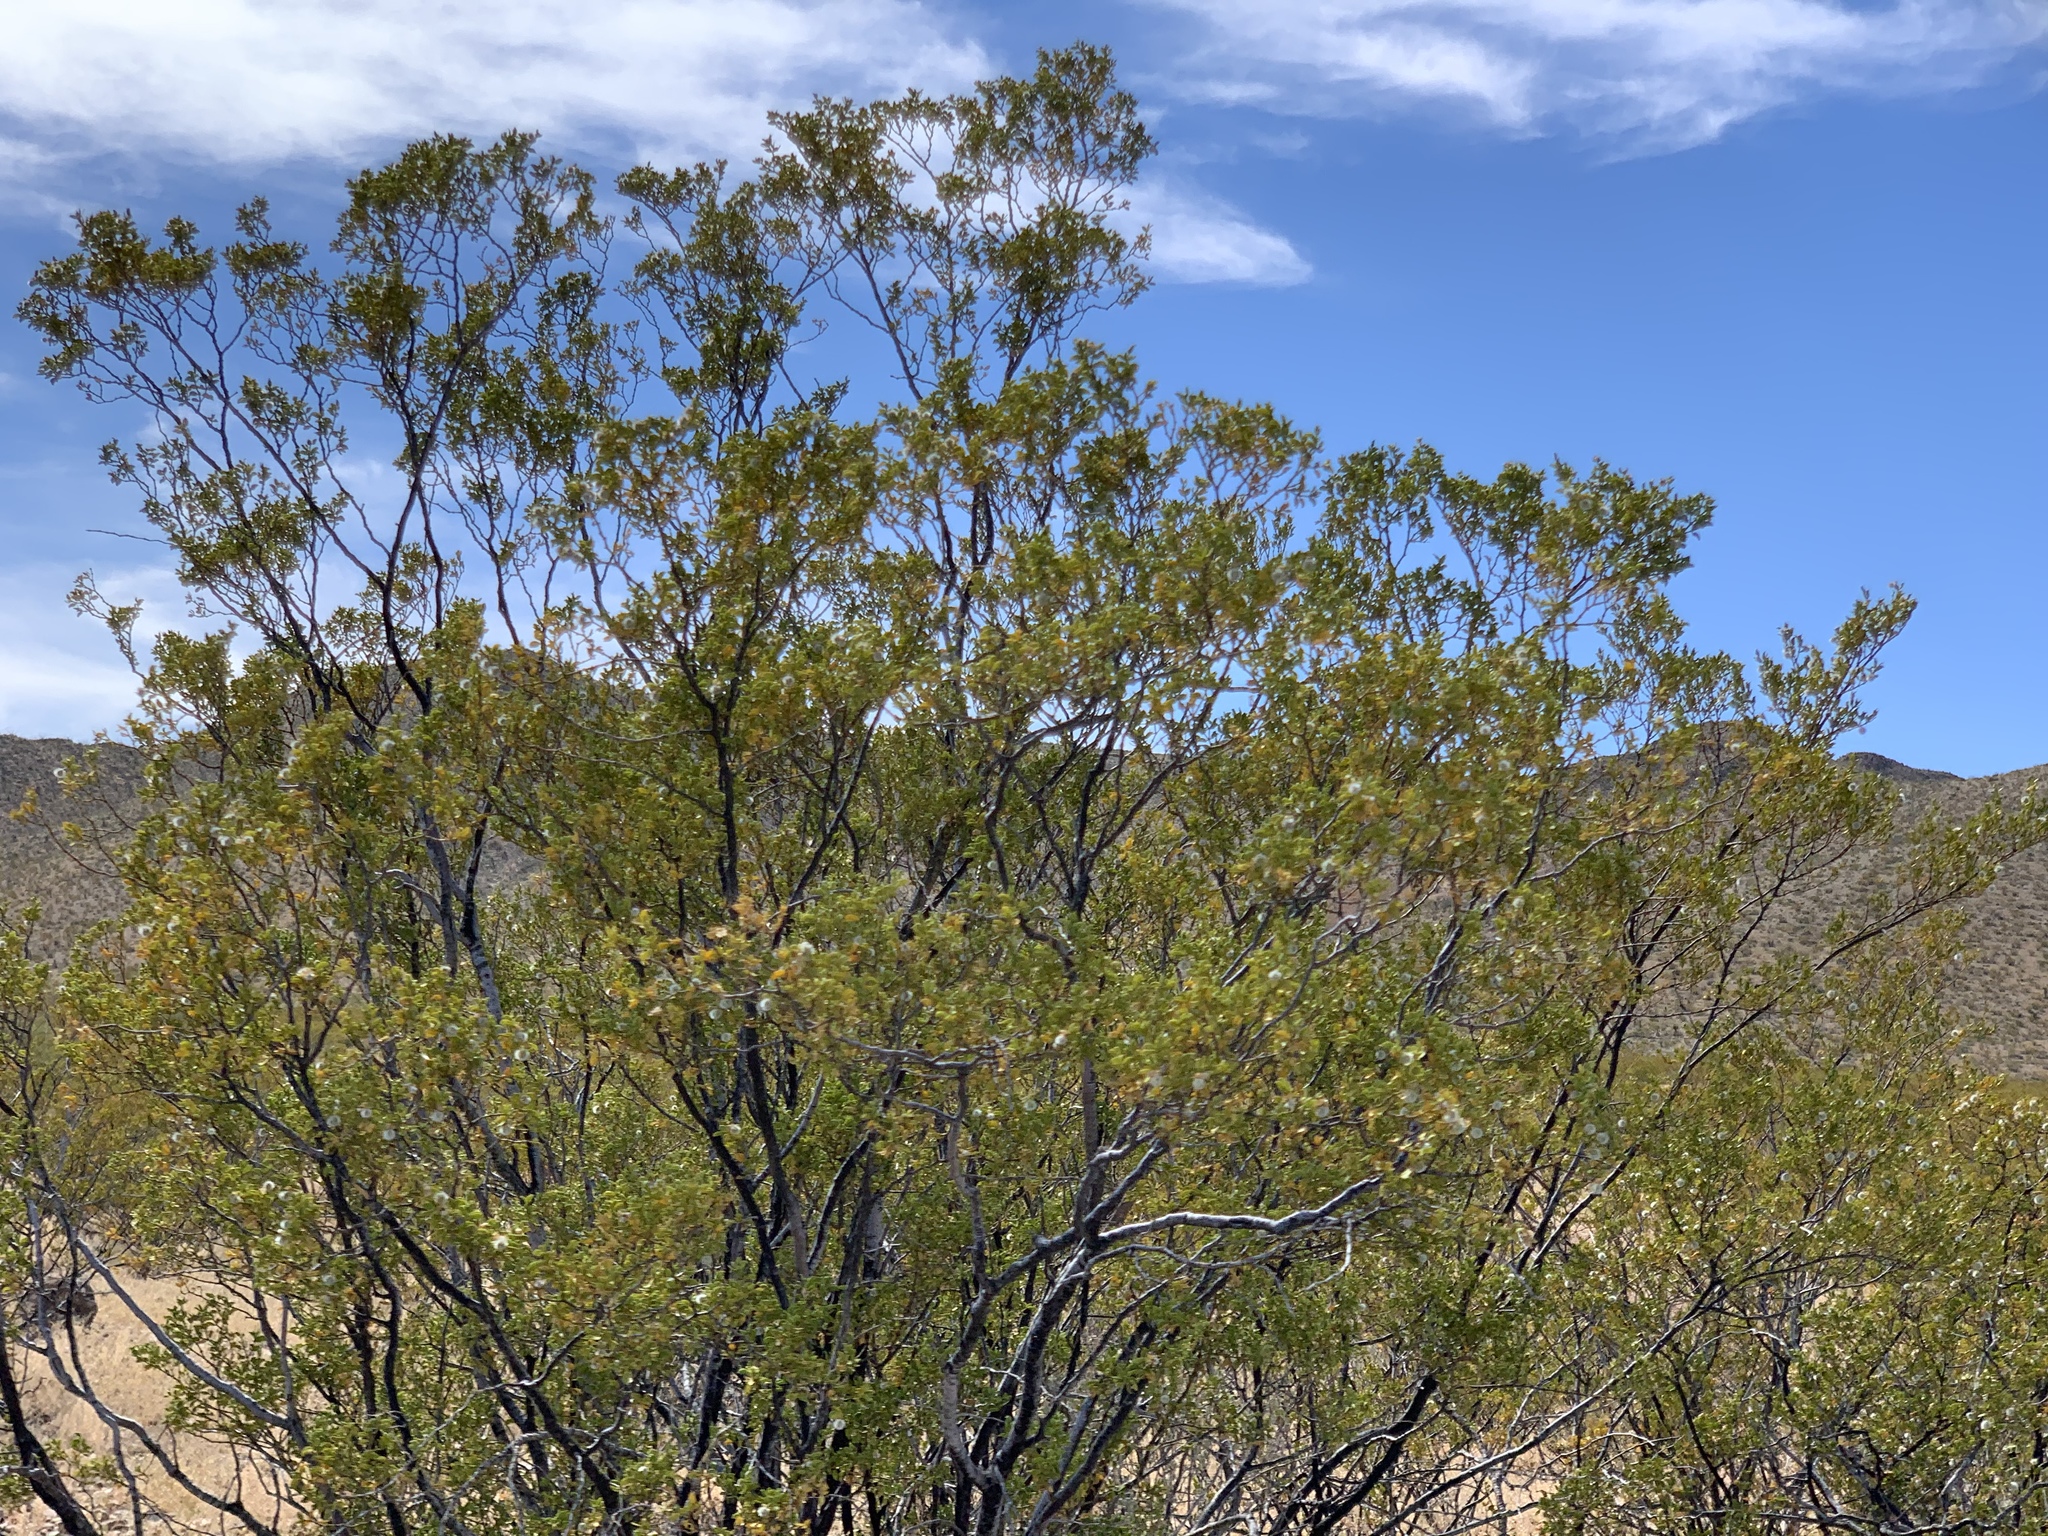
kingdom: Plantae
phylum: Tracheophyta
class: Magnoliopsida
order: Zygophyllales
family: Zygophyllaceae
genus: Larrea
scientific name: Larrea tridentata
